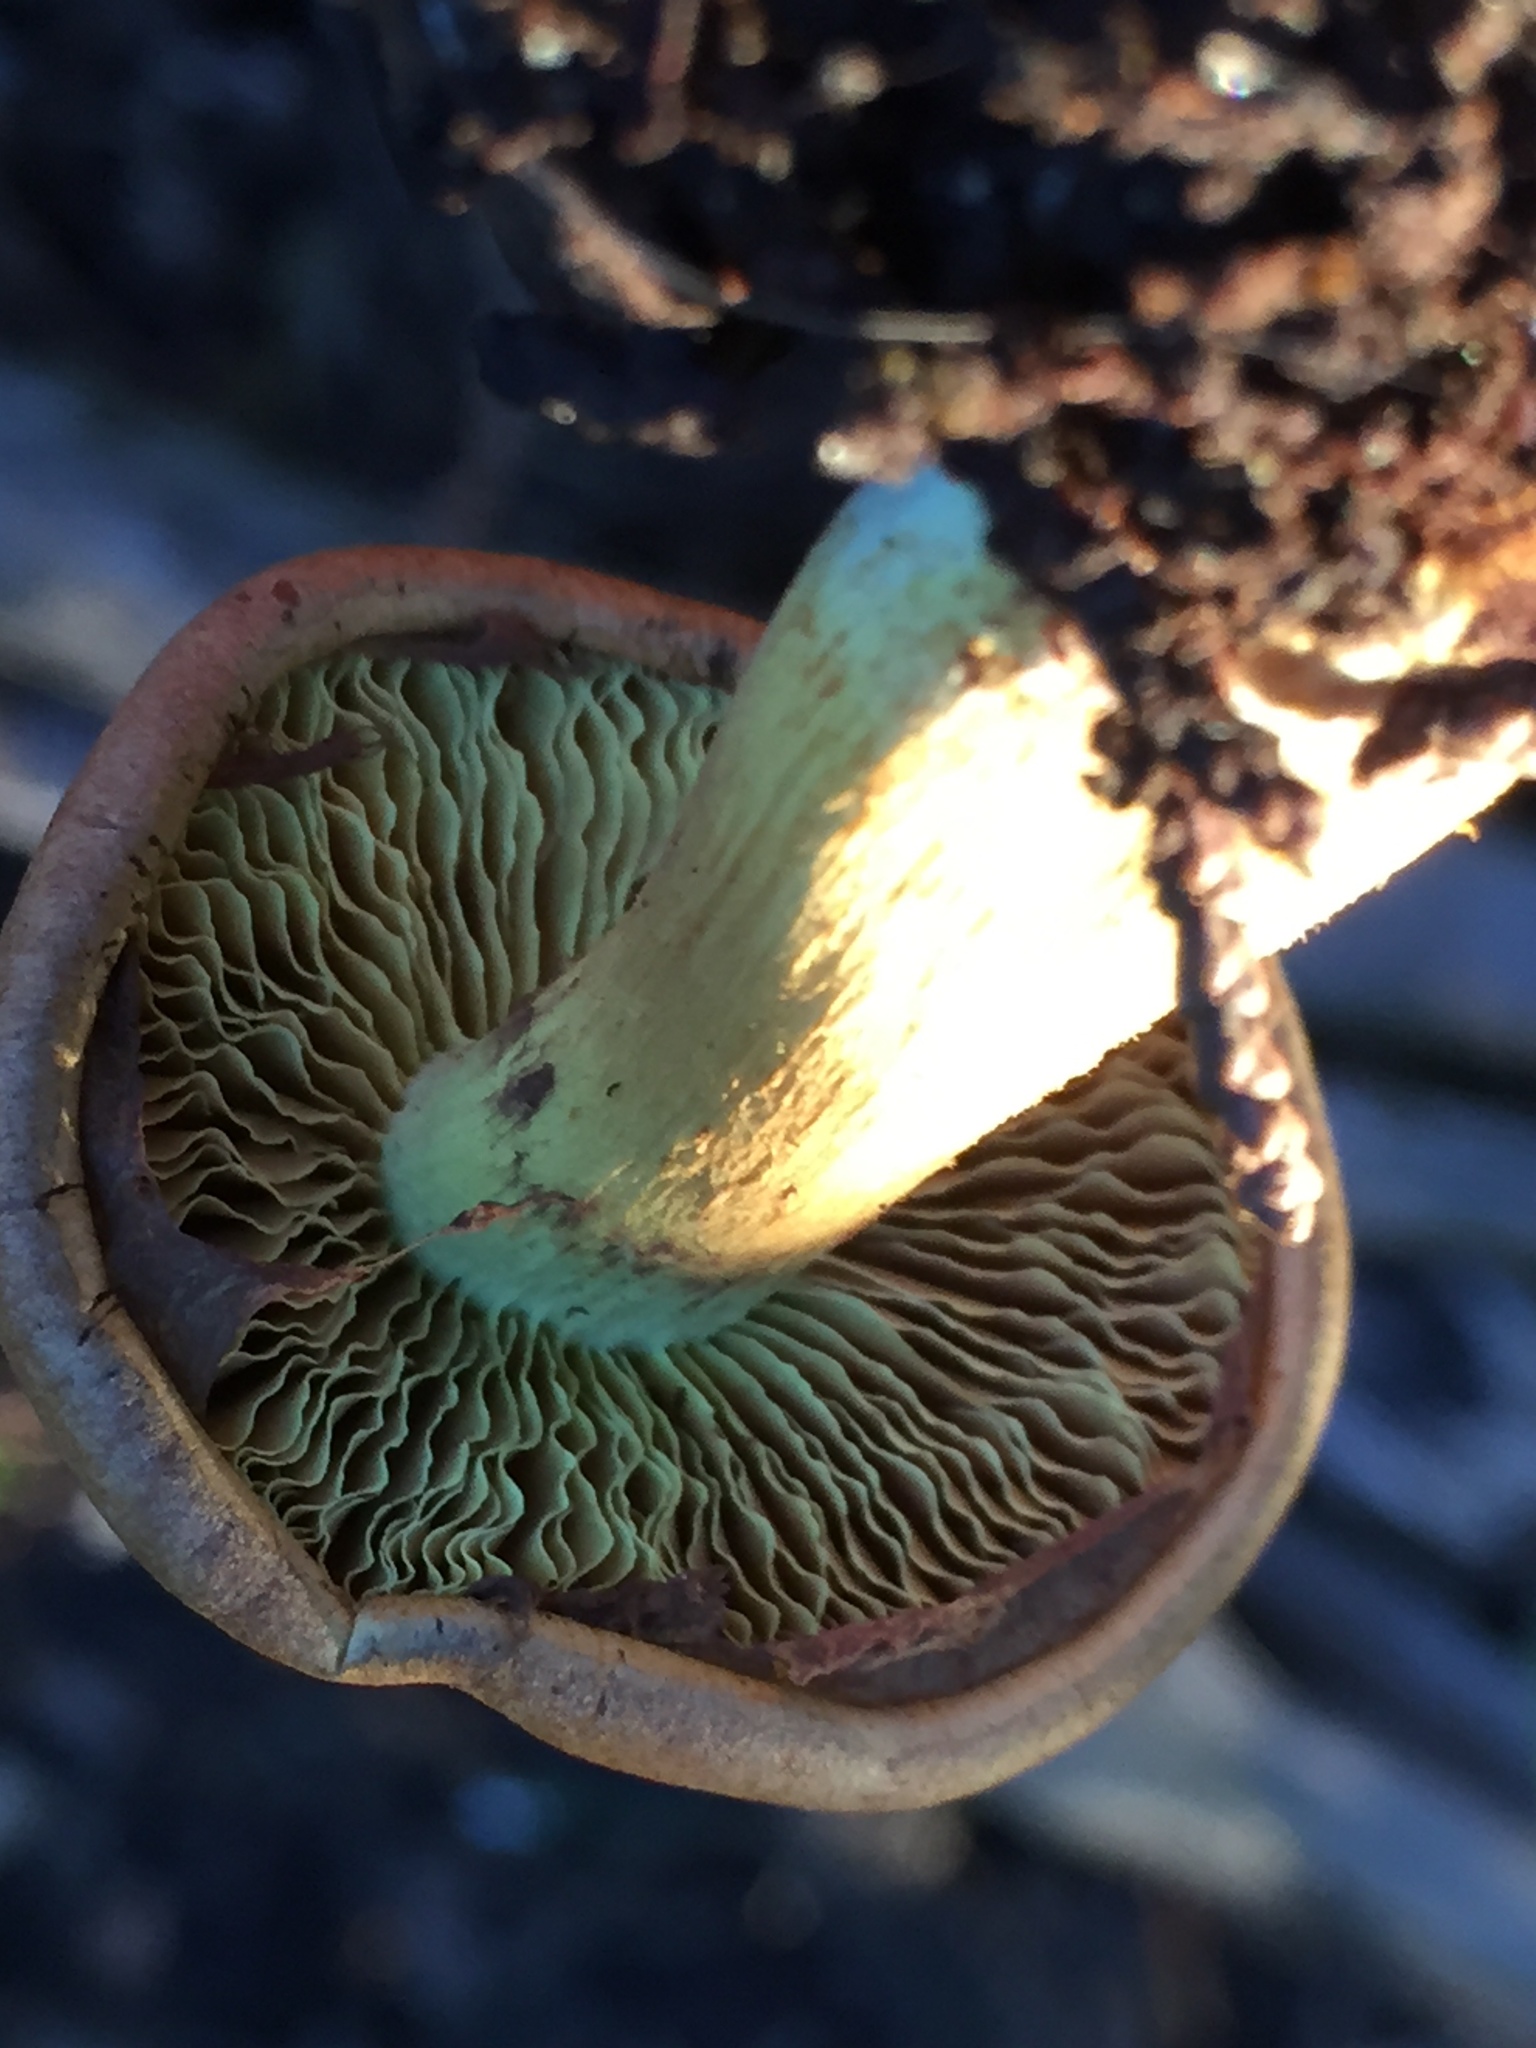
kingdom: Fungi
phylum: Basidiomycota
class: Agaricomycetes
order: Agaricales
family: Strophariaceae
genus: Hypholoma
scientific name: Hypholoma fasciculare
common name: Sulphur tuft
